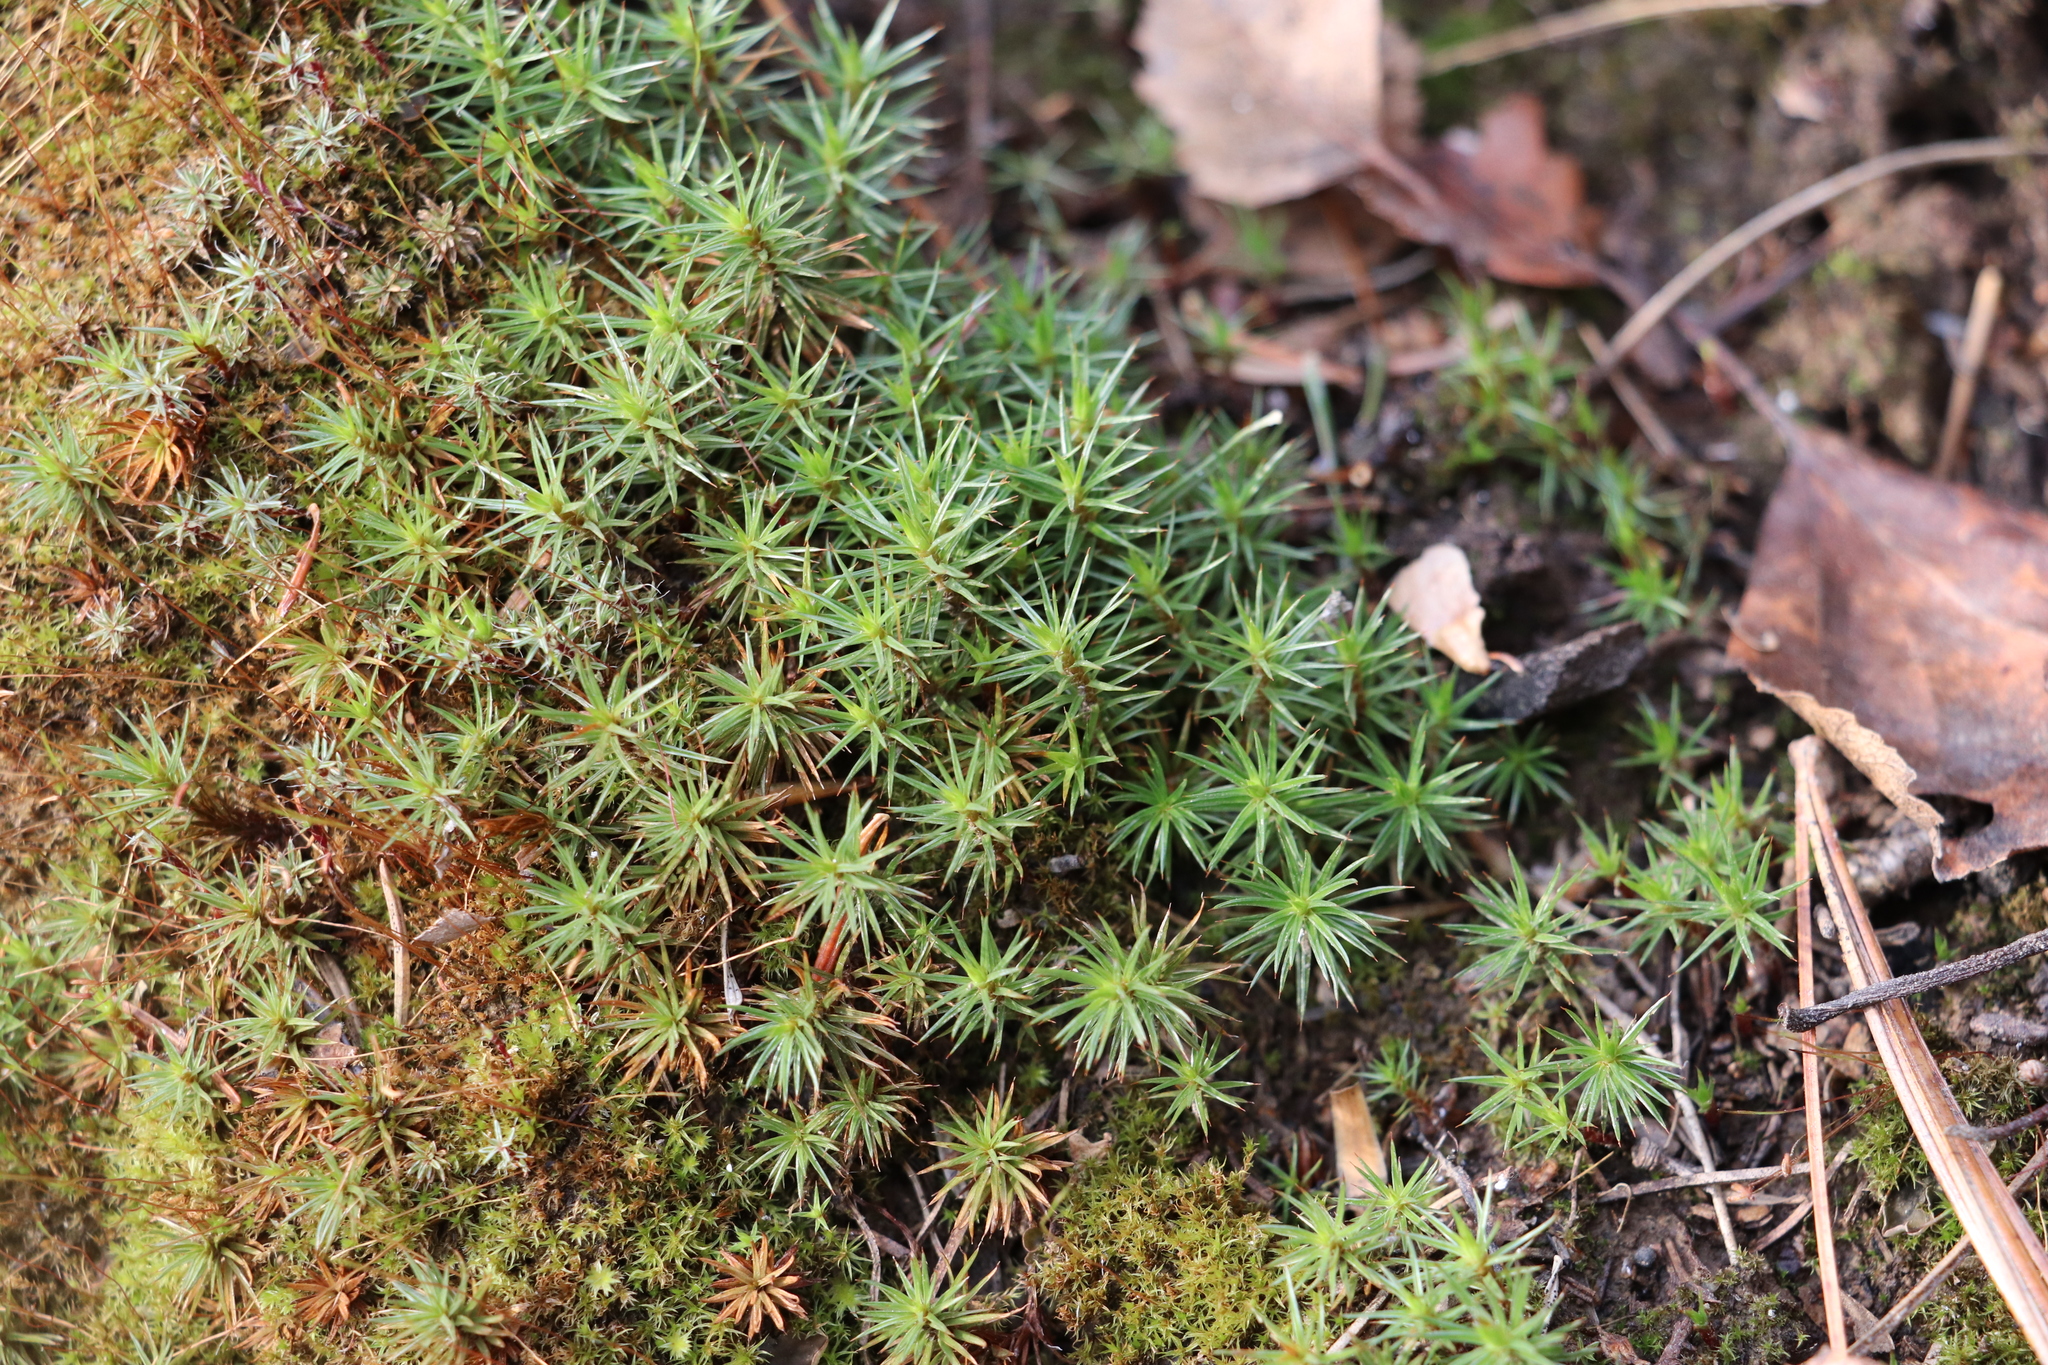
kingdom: Plantae
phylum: Bryophyta
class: Polytrichopsida
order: Polytrichales
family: Polytrichaceae
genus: Polytrichum
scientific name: Polytrichum juniperinum
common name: Juniper haircap moss
